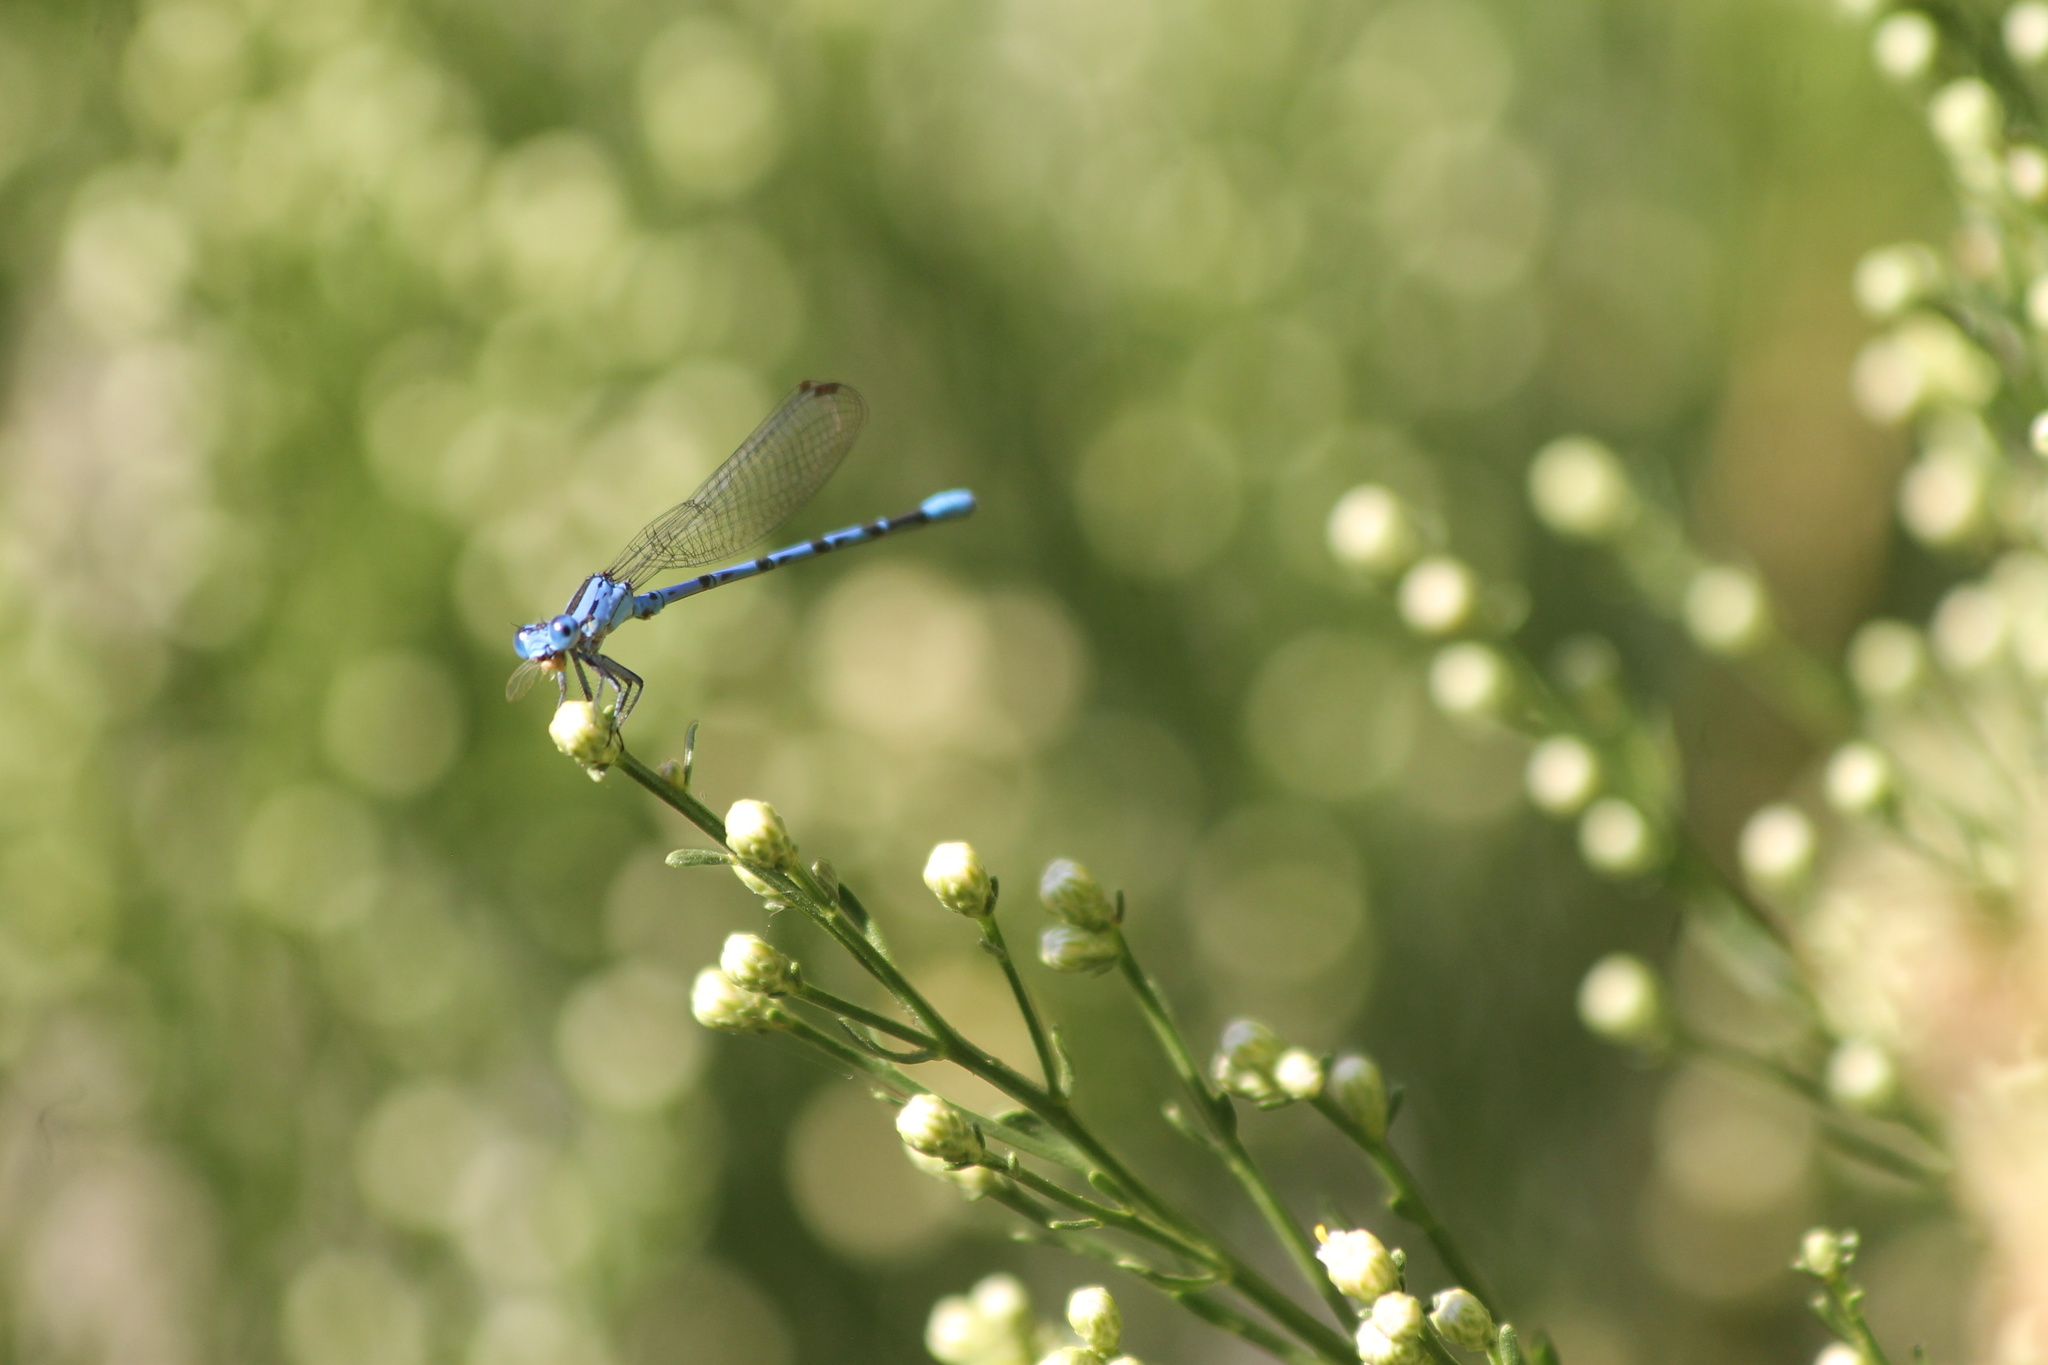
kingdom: Animalia
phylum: Arthropoda
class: Insecta
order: Odonata
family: Coenagrionidae
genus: Argia
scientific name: Argia vivida
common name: Vivid dancer
